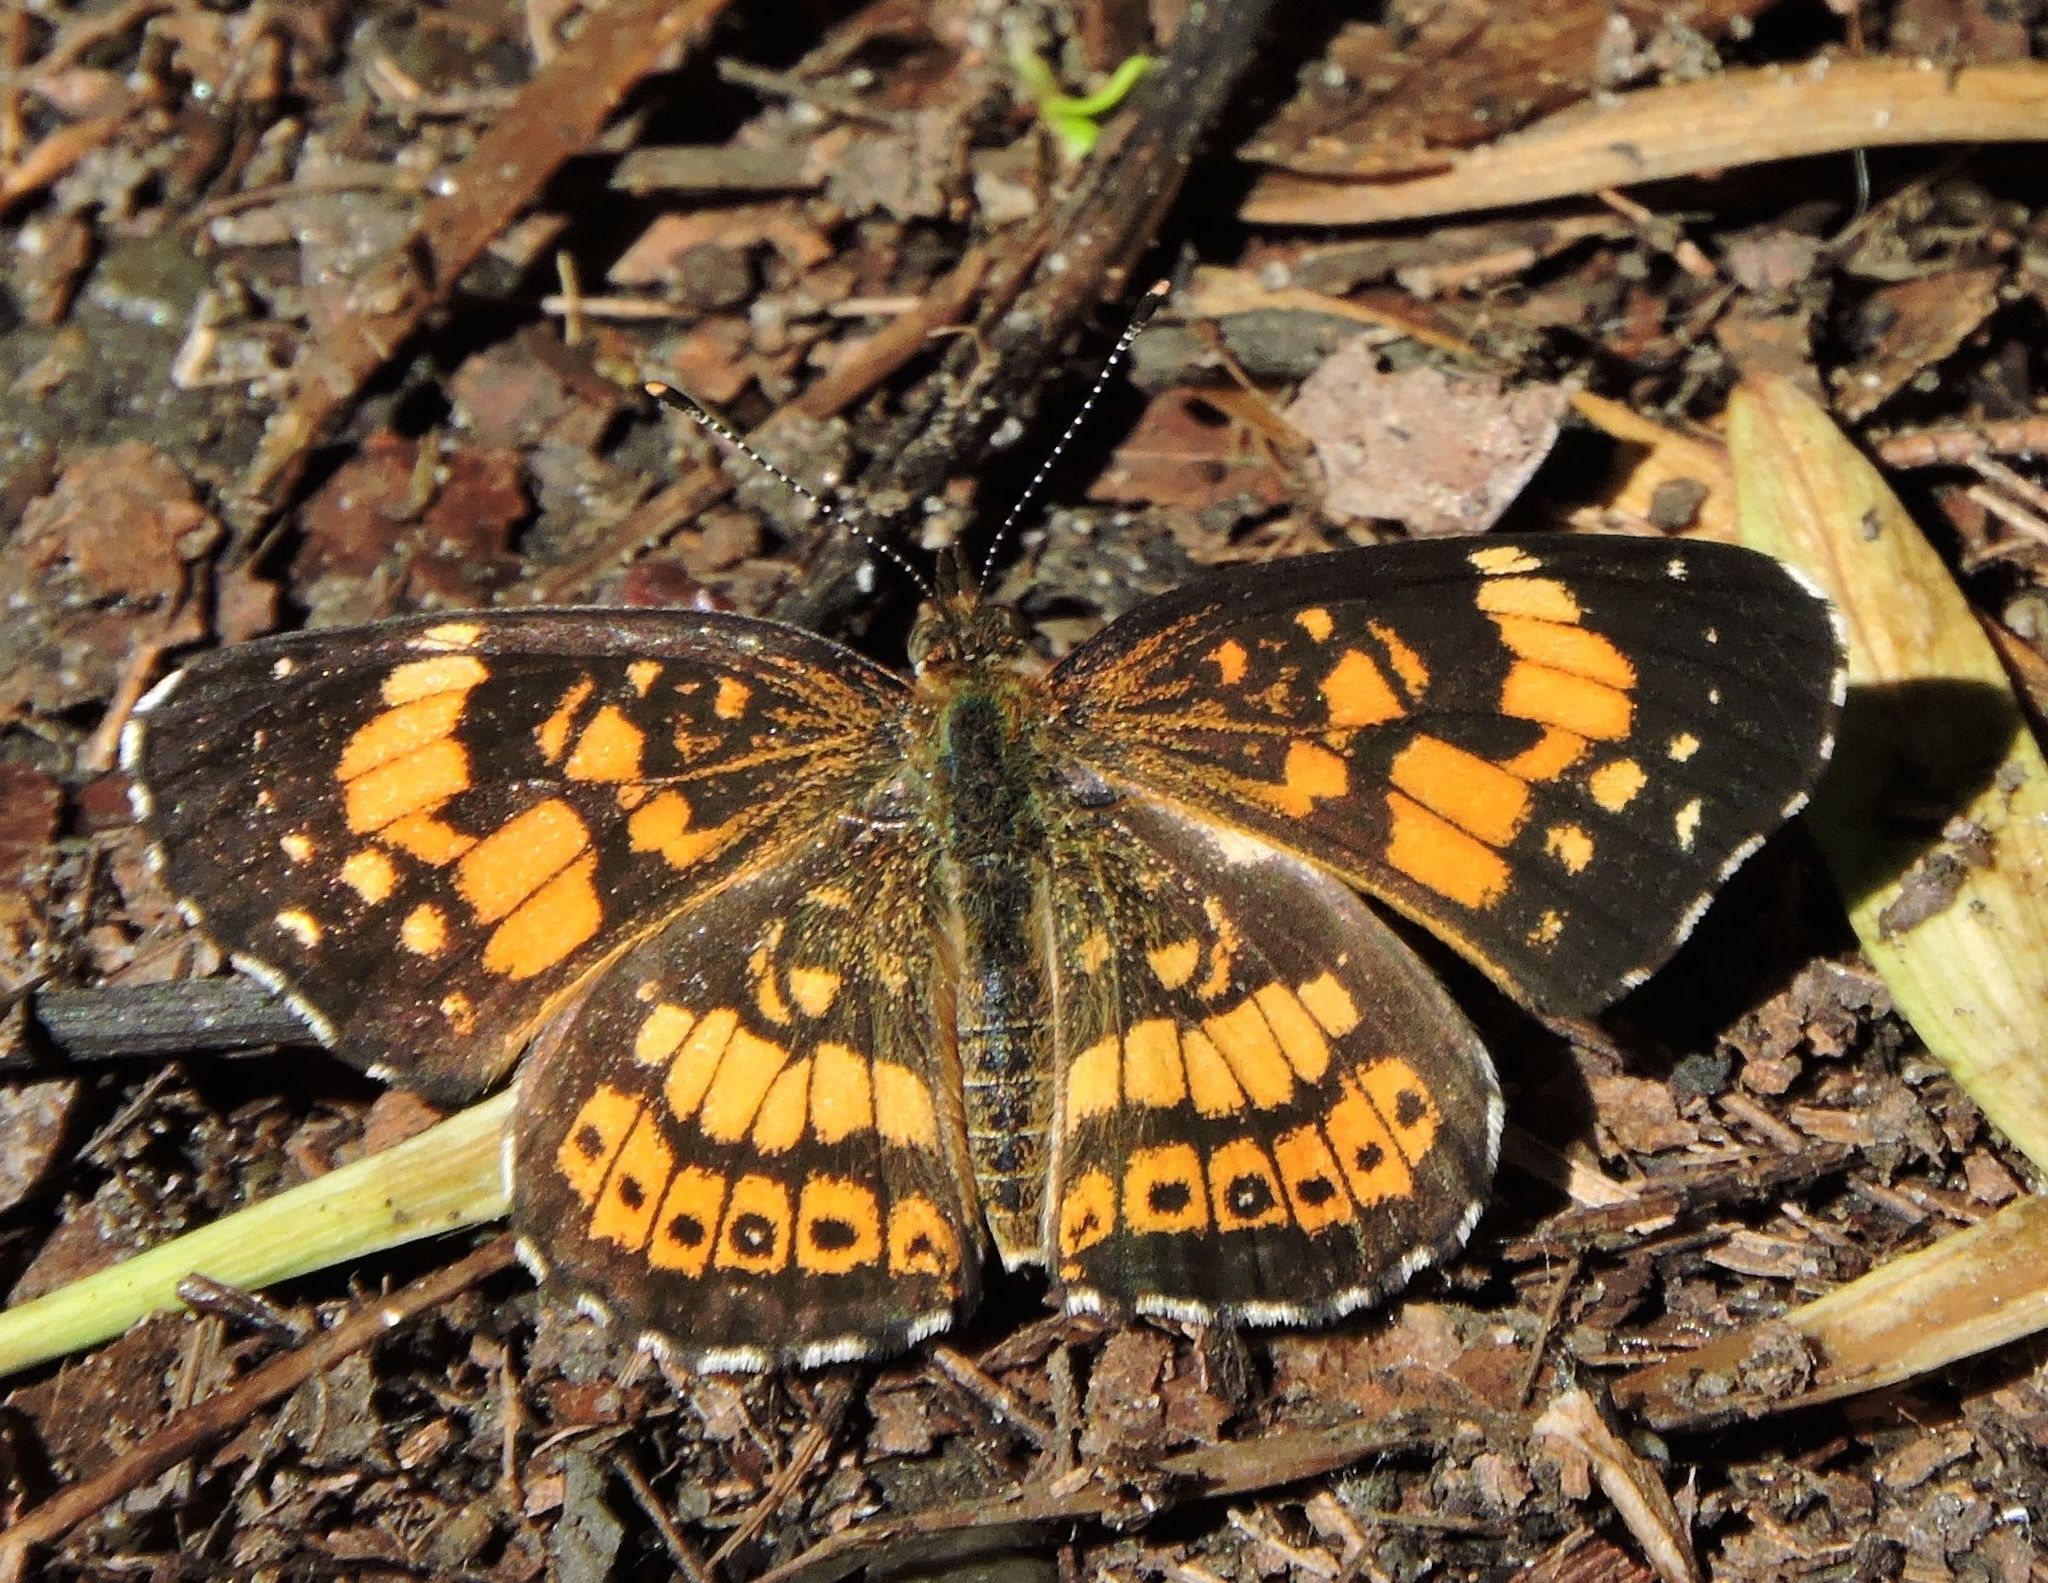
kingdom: Animalia
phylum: Arthropoda
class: Insecta
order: Lepidoptera
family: Nymphalidae
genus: Chlosyne
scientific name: Chlosyne nycteis
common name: Silvery checkerspot
